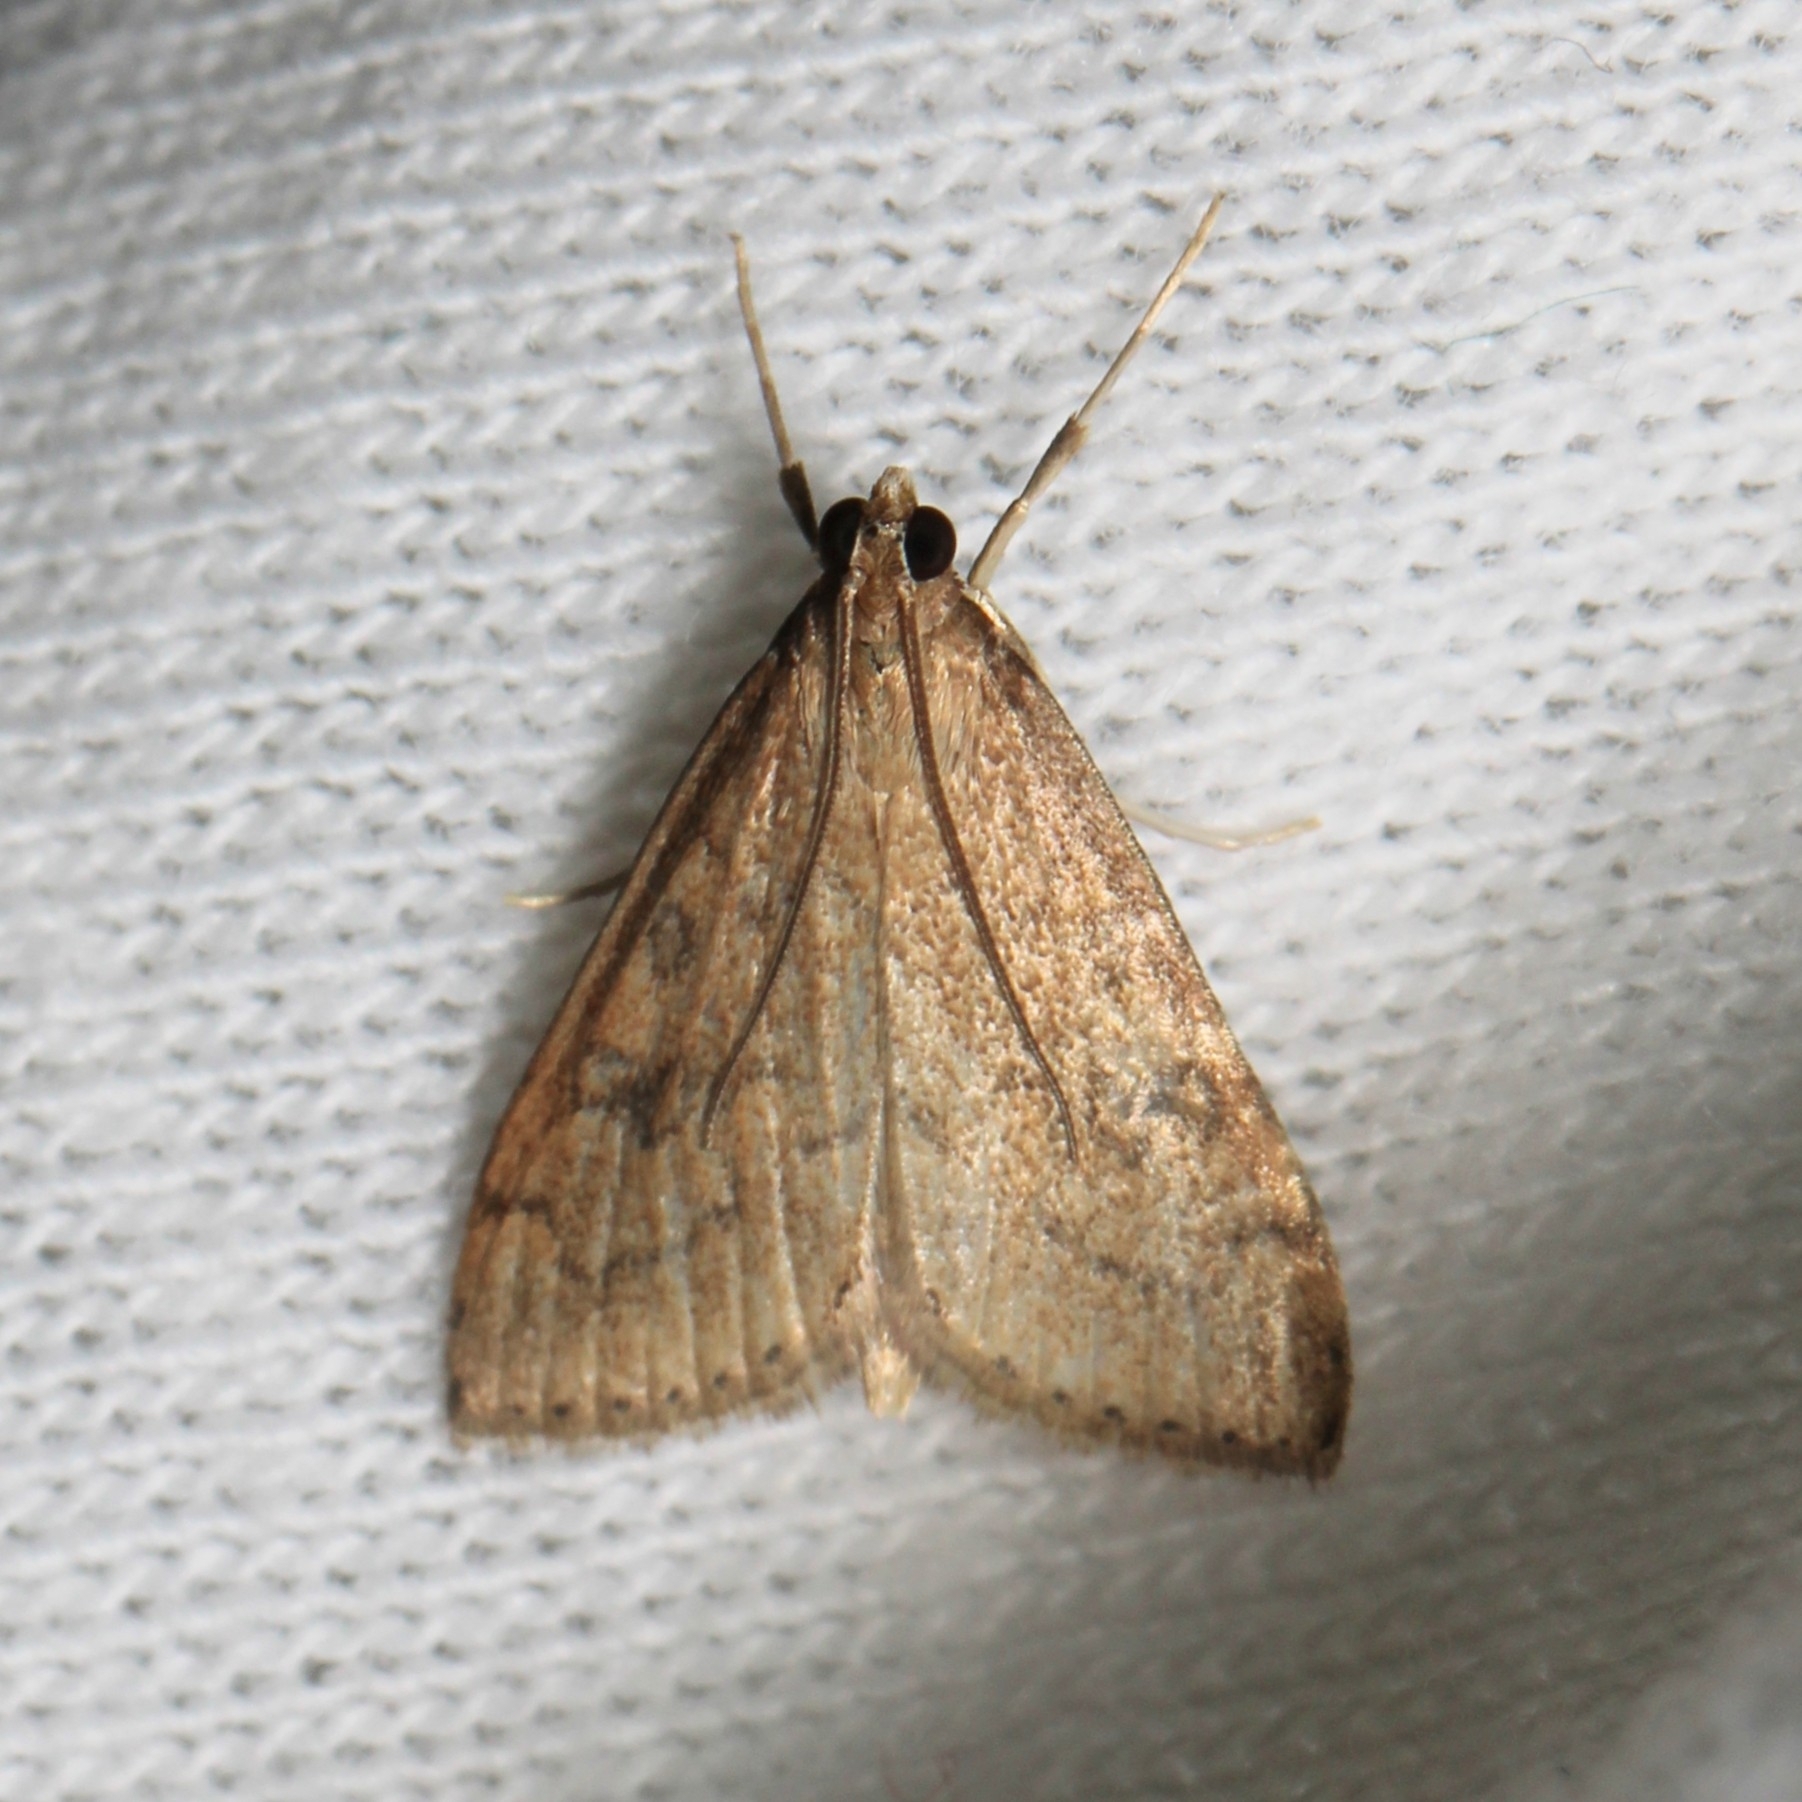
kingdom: Animalia
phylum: Arthropoda
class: Insecta
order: Lepidoptera
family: Crambidae
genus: Udea
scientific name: Udea rubigalis
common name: Celery leaftier moth
